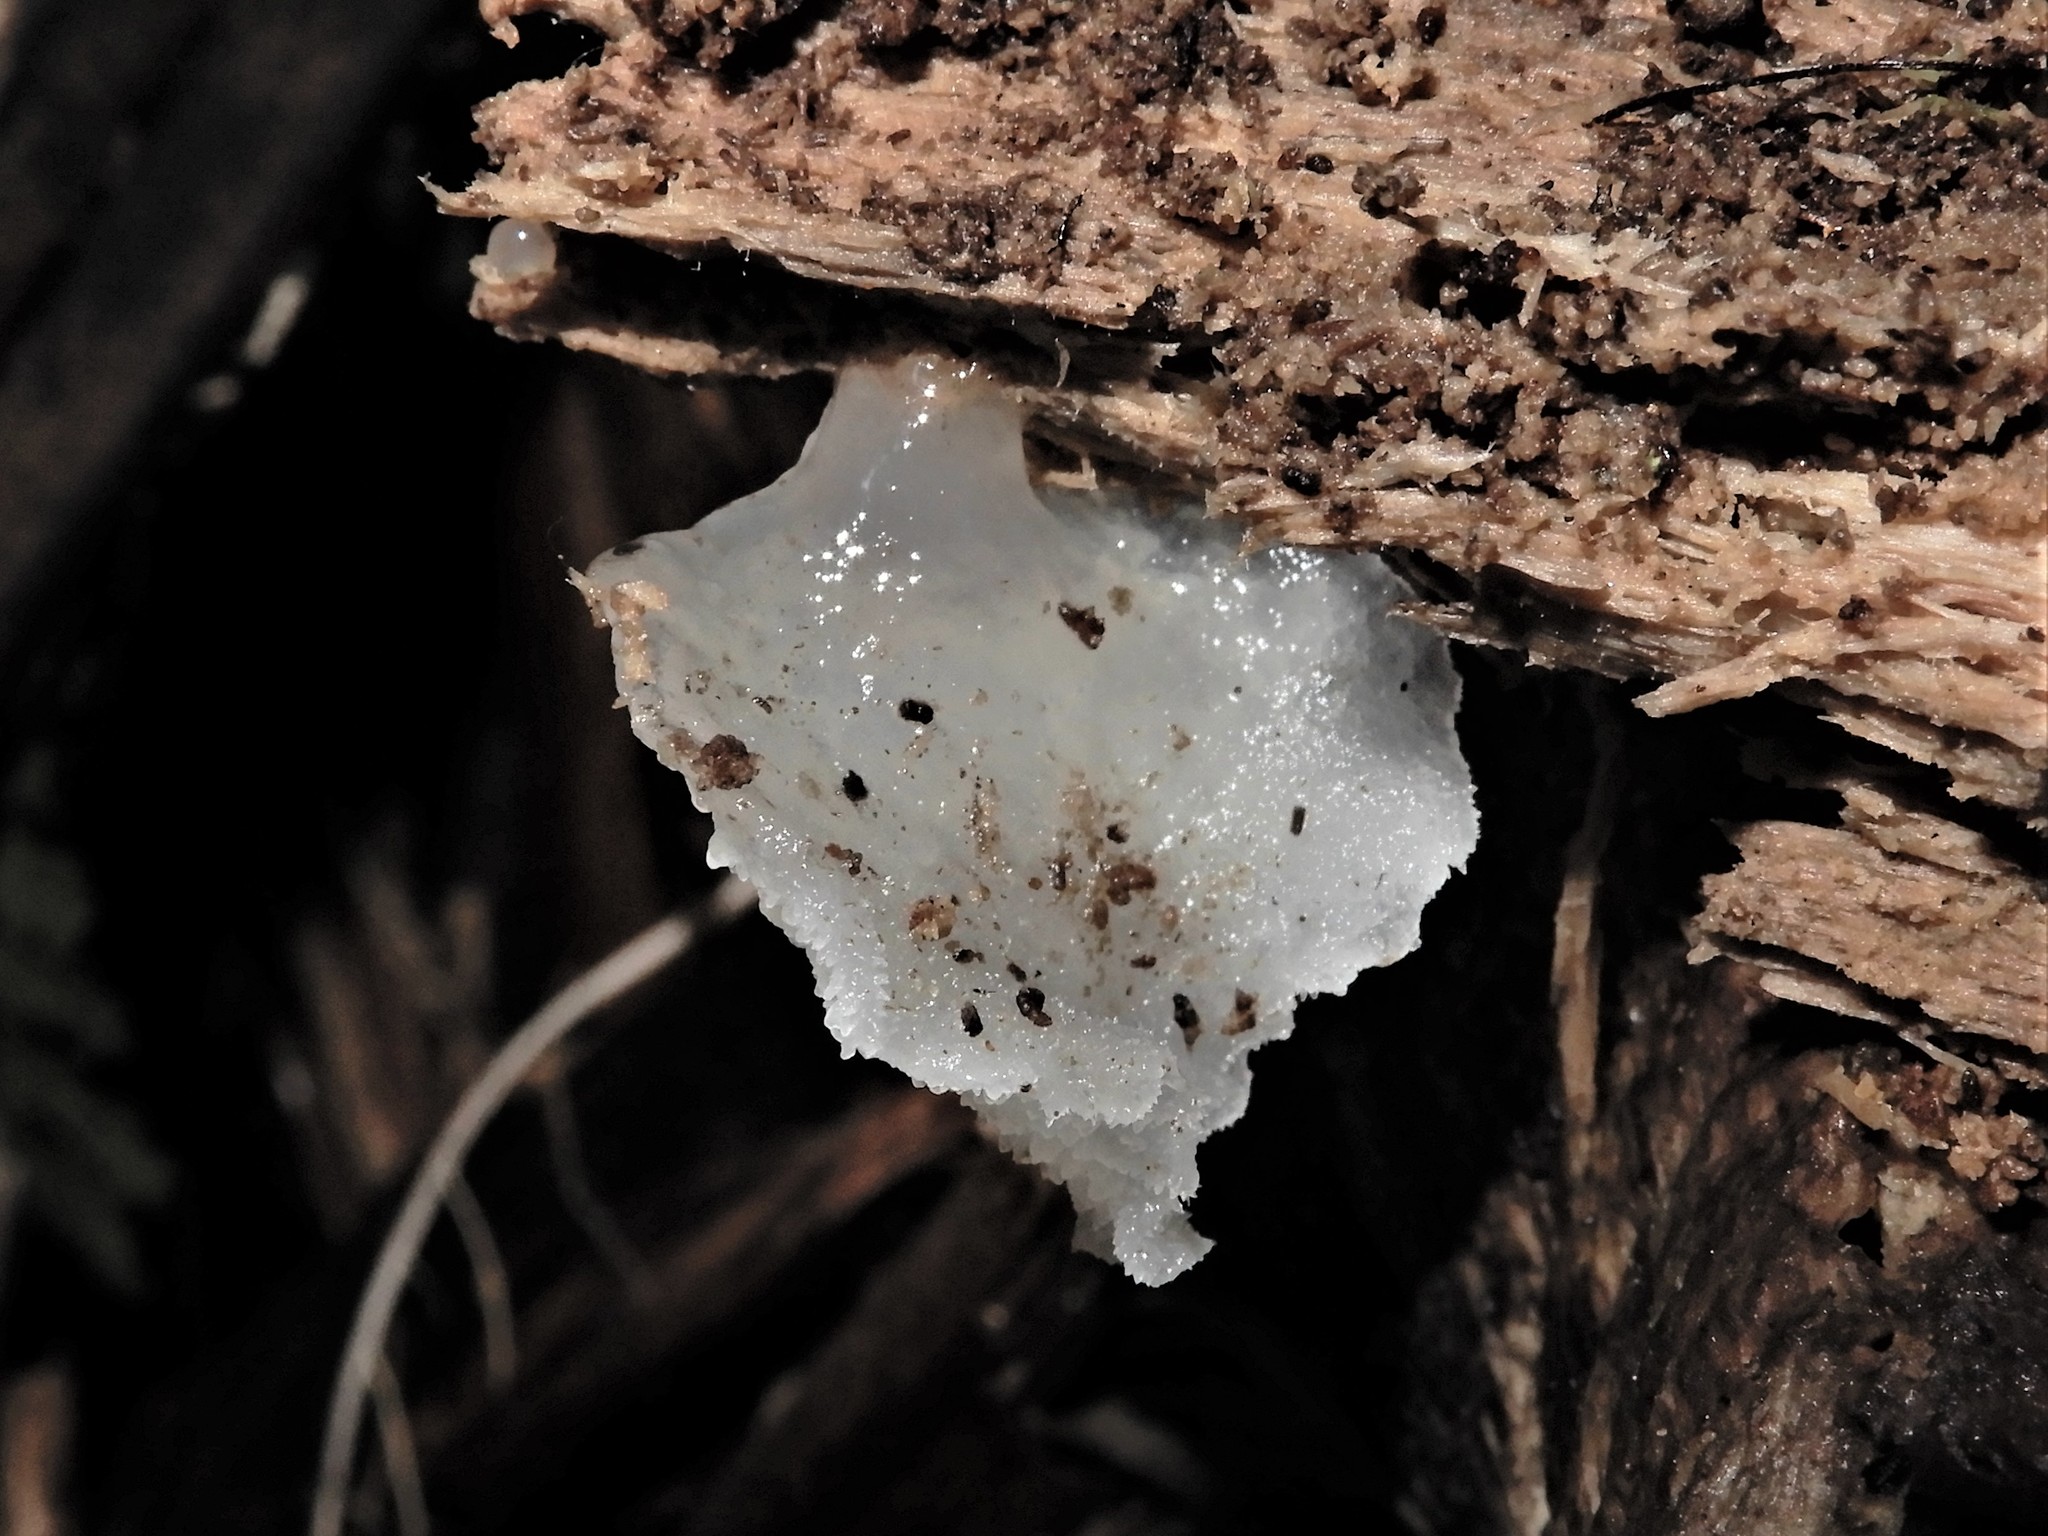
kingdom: Fungi
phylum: Basidiomycota
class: Agaricomycetes
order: Auriculariales
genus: Pseudohydnum
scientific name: Pseudohydnum orbiculare
